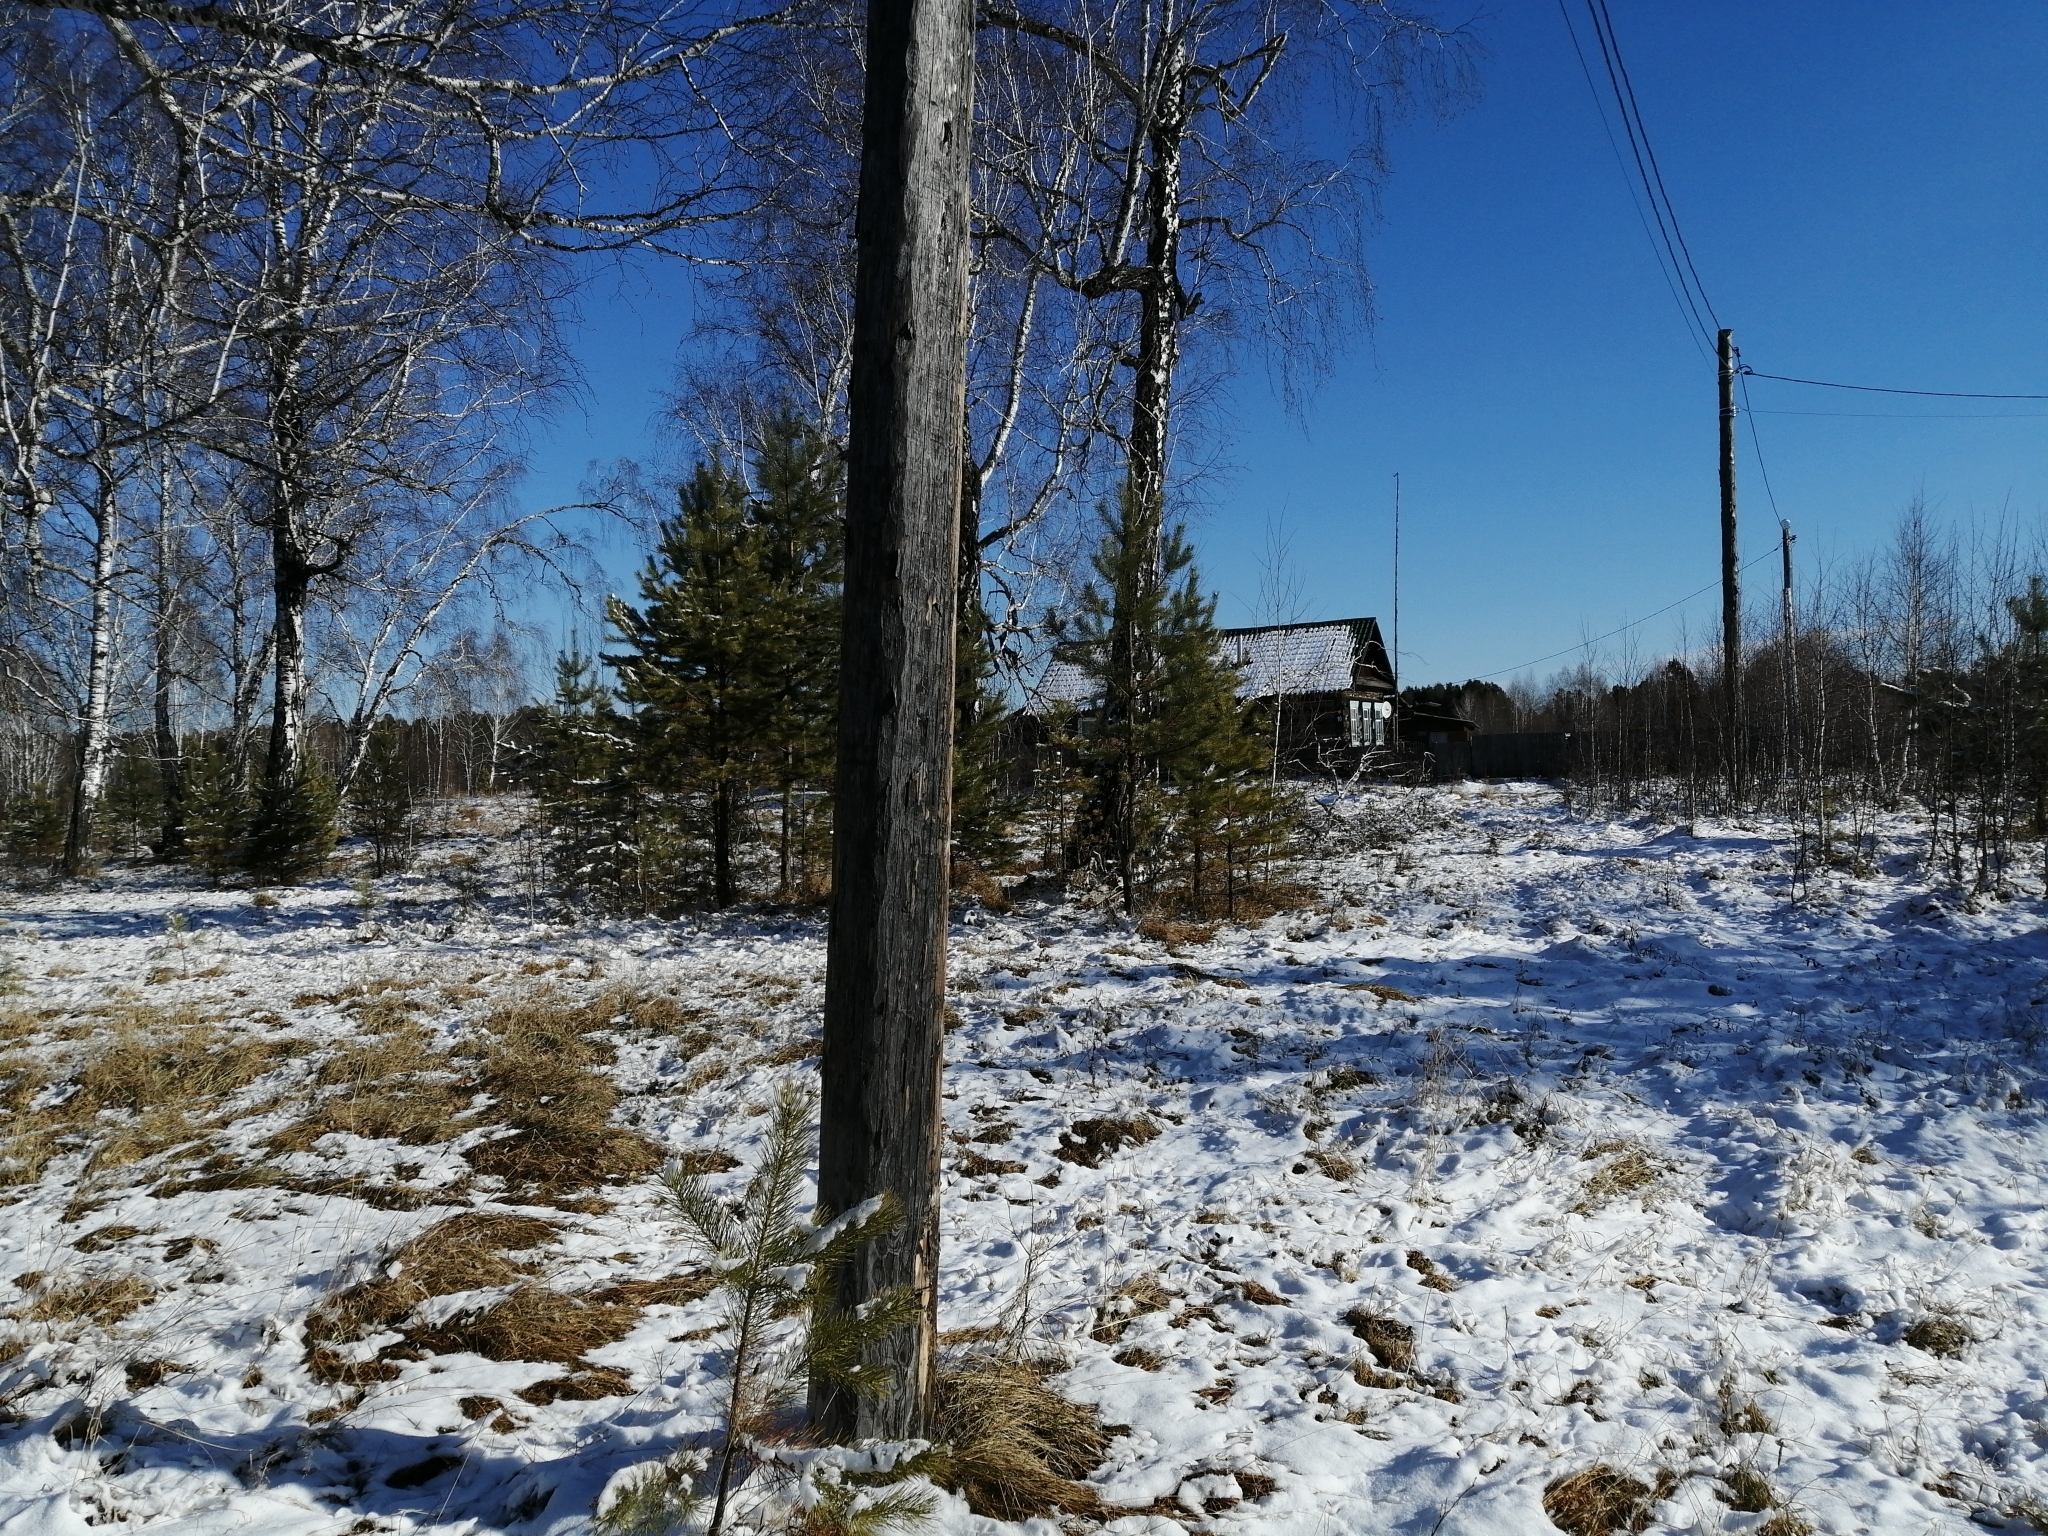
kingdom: Plantae
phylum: Tracheophyta
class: Pinopsida
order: Pinales
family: Pinaceae
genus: Pinus
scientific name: Pinus sylvestris
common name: Scots pine
